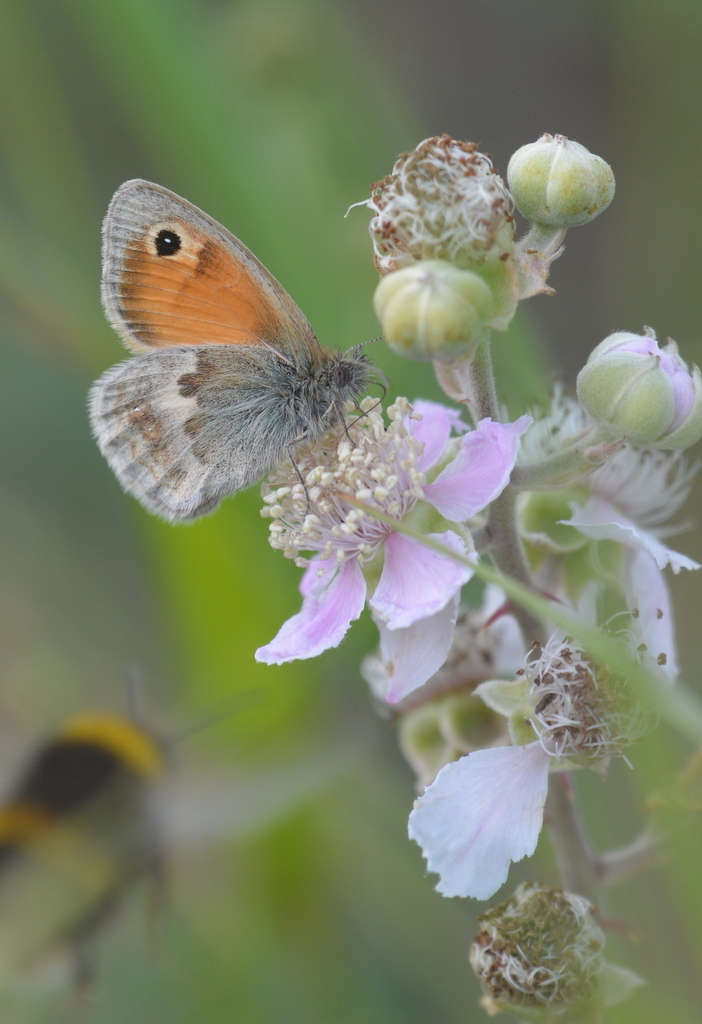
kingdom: Animalia
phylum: Arthropoda
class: Insecta
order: Lepidoptera
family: Nymphalidae
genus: Coenonympha
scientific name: Coenonympha pamphilus
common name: Small heath
